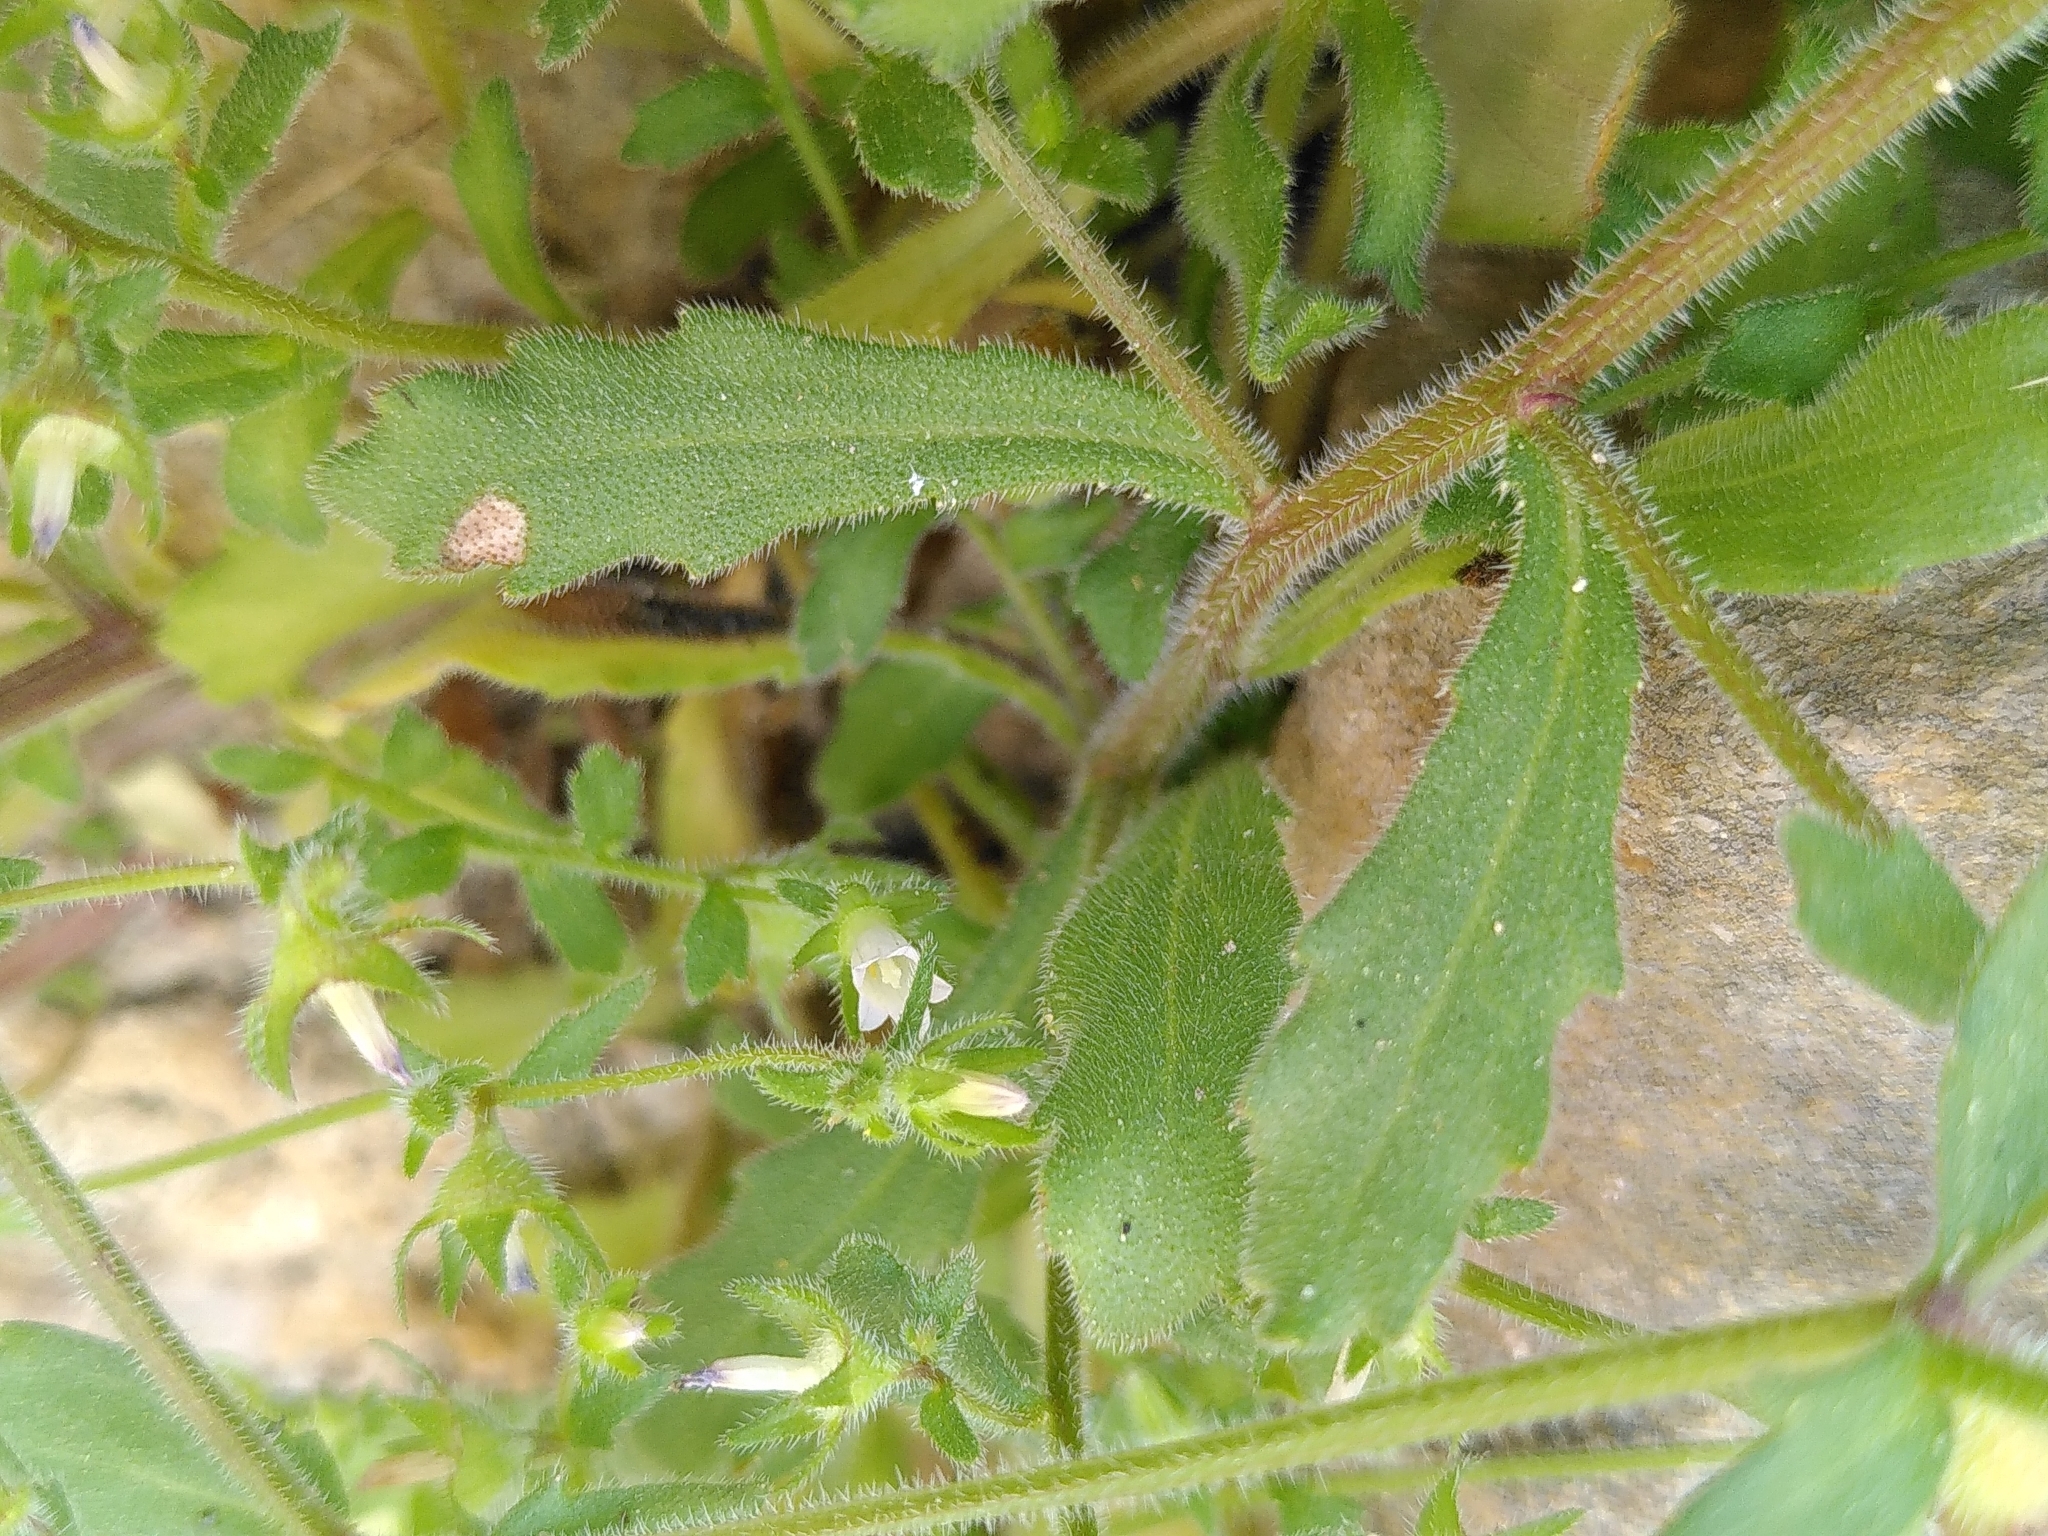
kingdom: Plantae
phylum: Tracheophyta
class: Magnoliopsida
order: Asterales
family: Campanulaceae
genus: Campanula
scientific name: Campanula erinus
